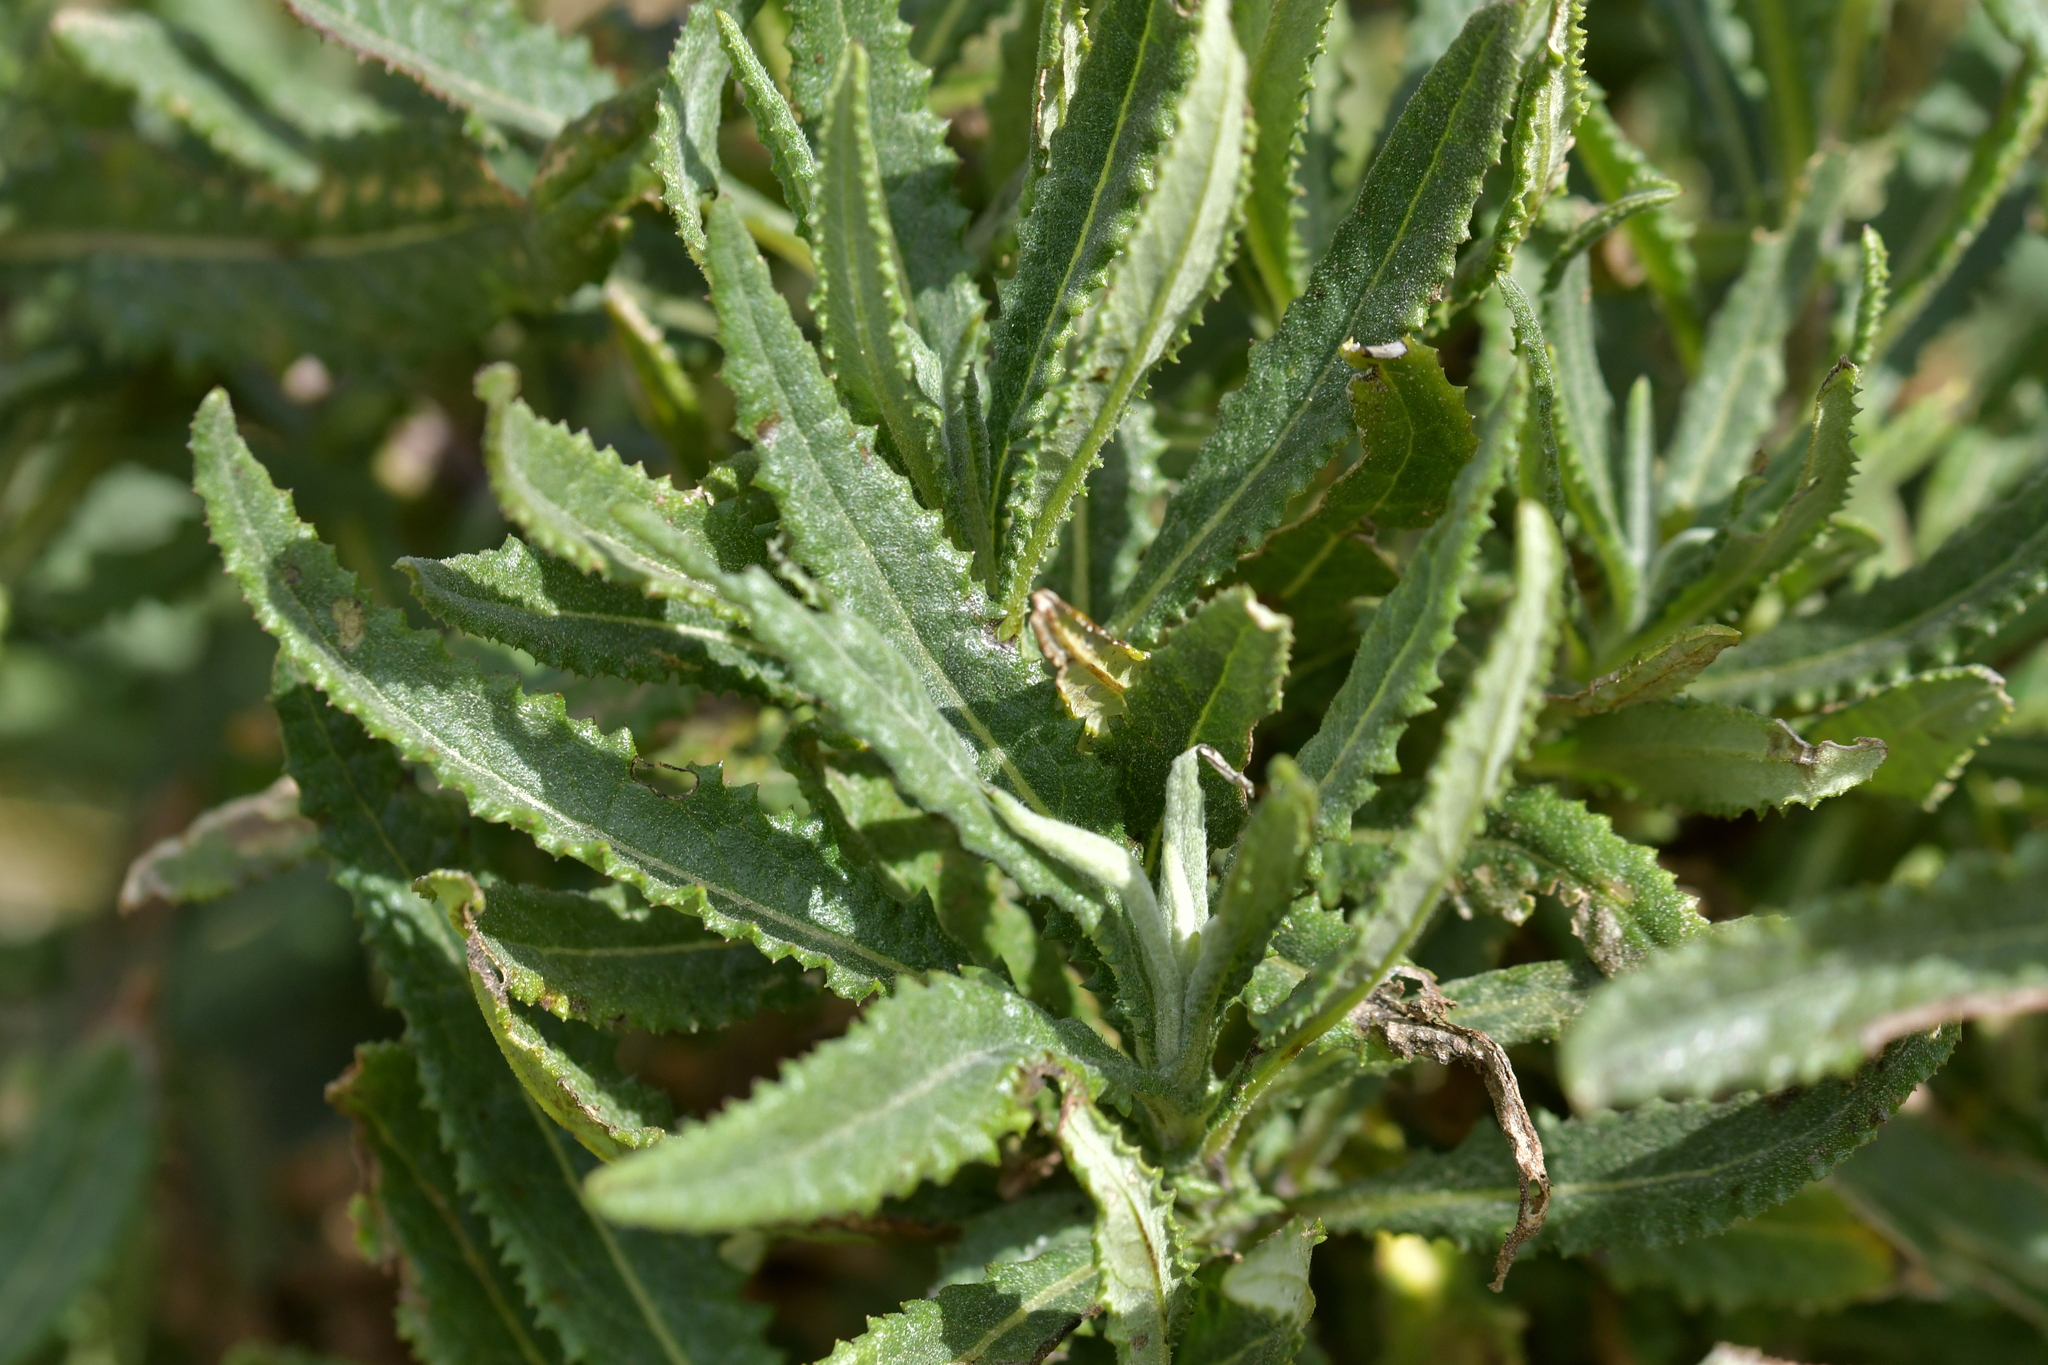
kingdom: Plantae
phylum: Tracheophyta
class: Magnoliopsida
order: Asterales
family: Asteraceae
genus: Senecio
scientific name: Senecio minimus
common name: Toothed fireweed
